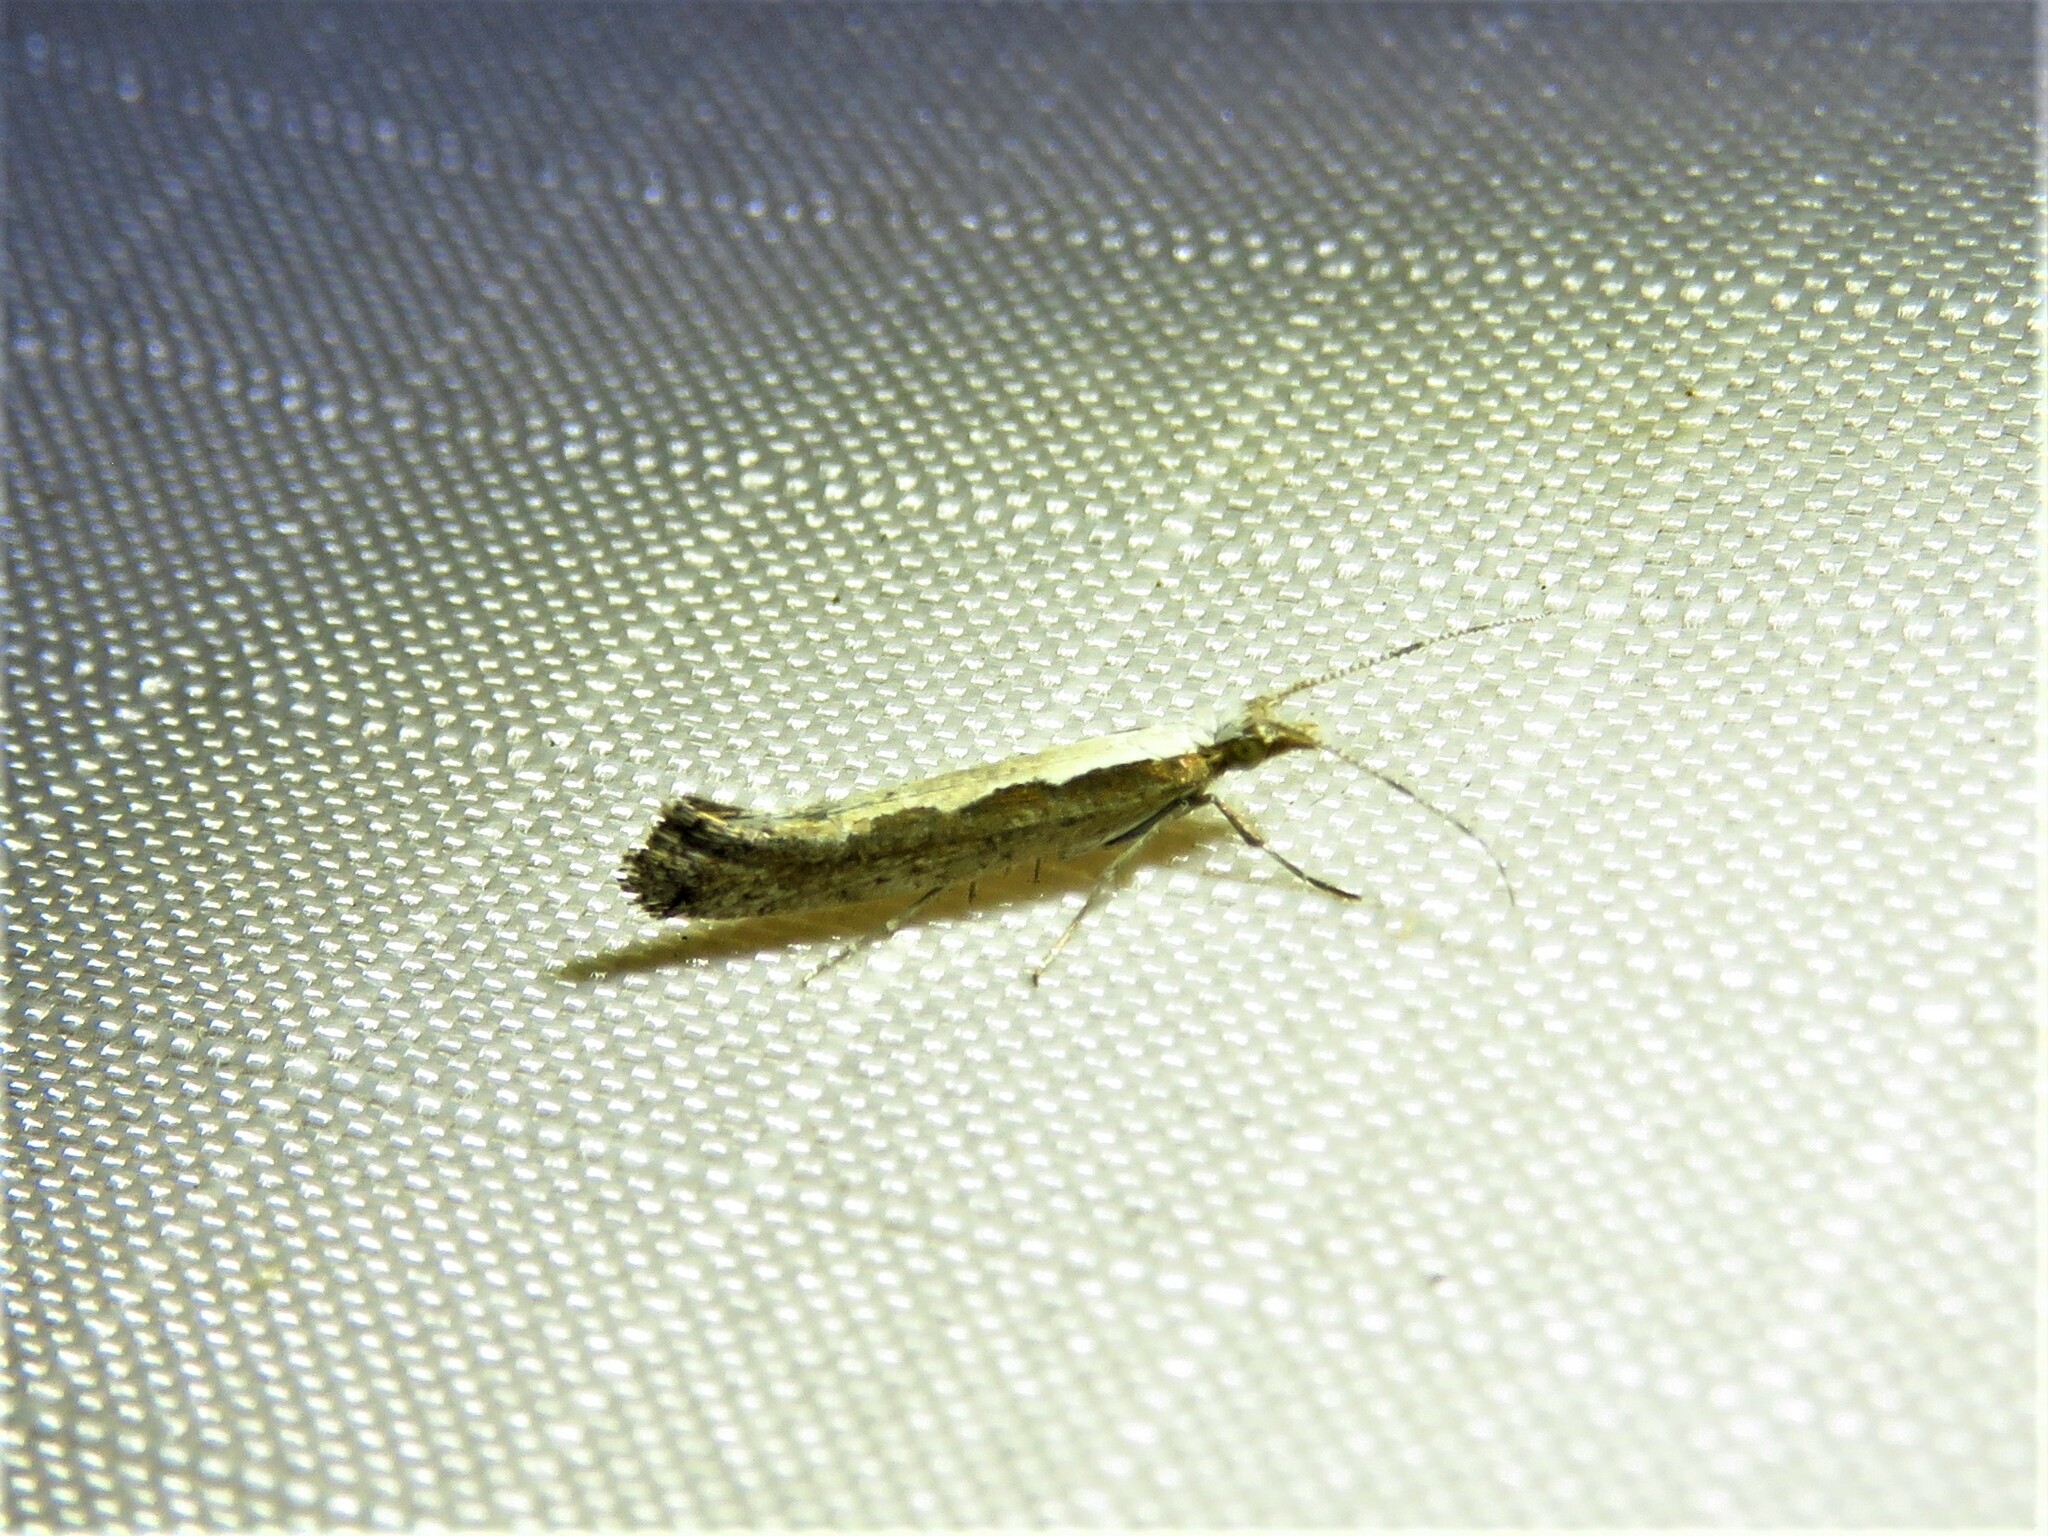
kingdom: Animalia
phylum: Arthropoda
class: Insecta
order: Lepidoptera
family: Plutellidae
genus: Plutella
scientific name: Plutella xylostella
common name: Diamond-back moth
